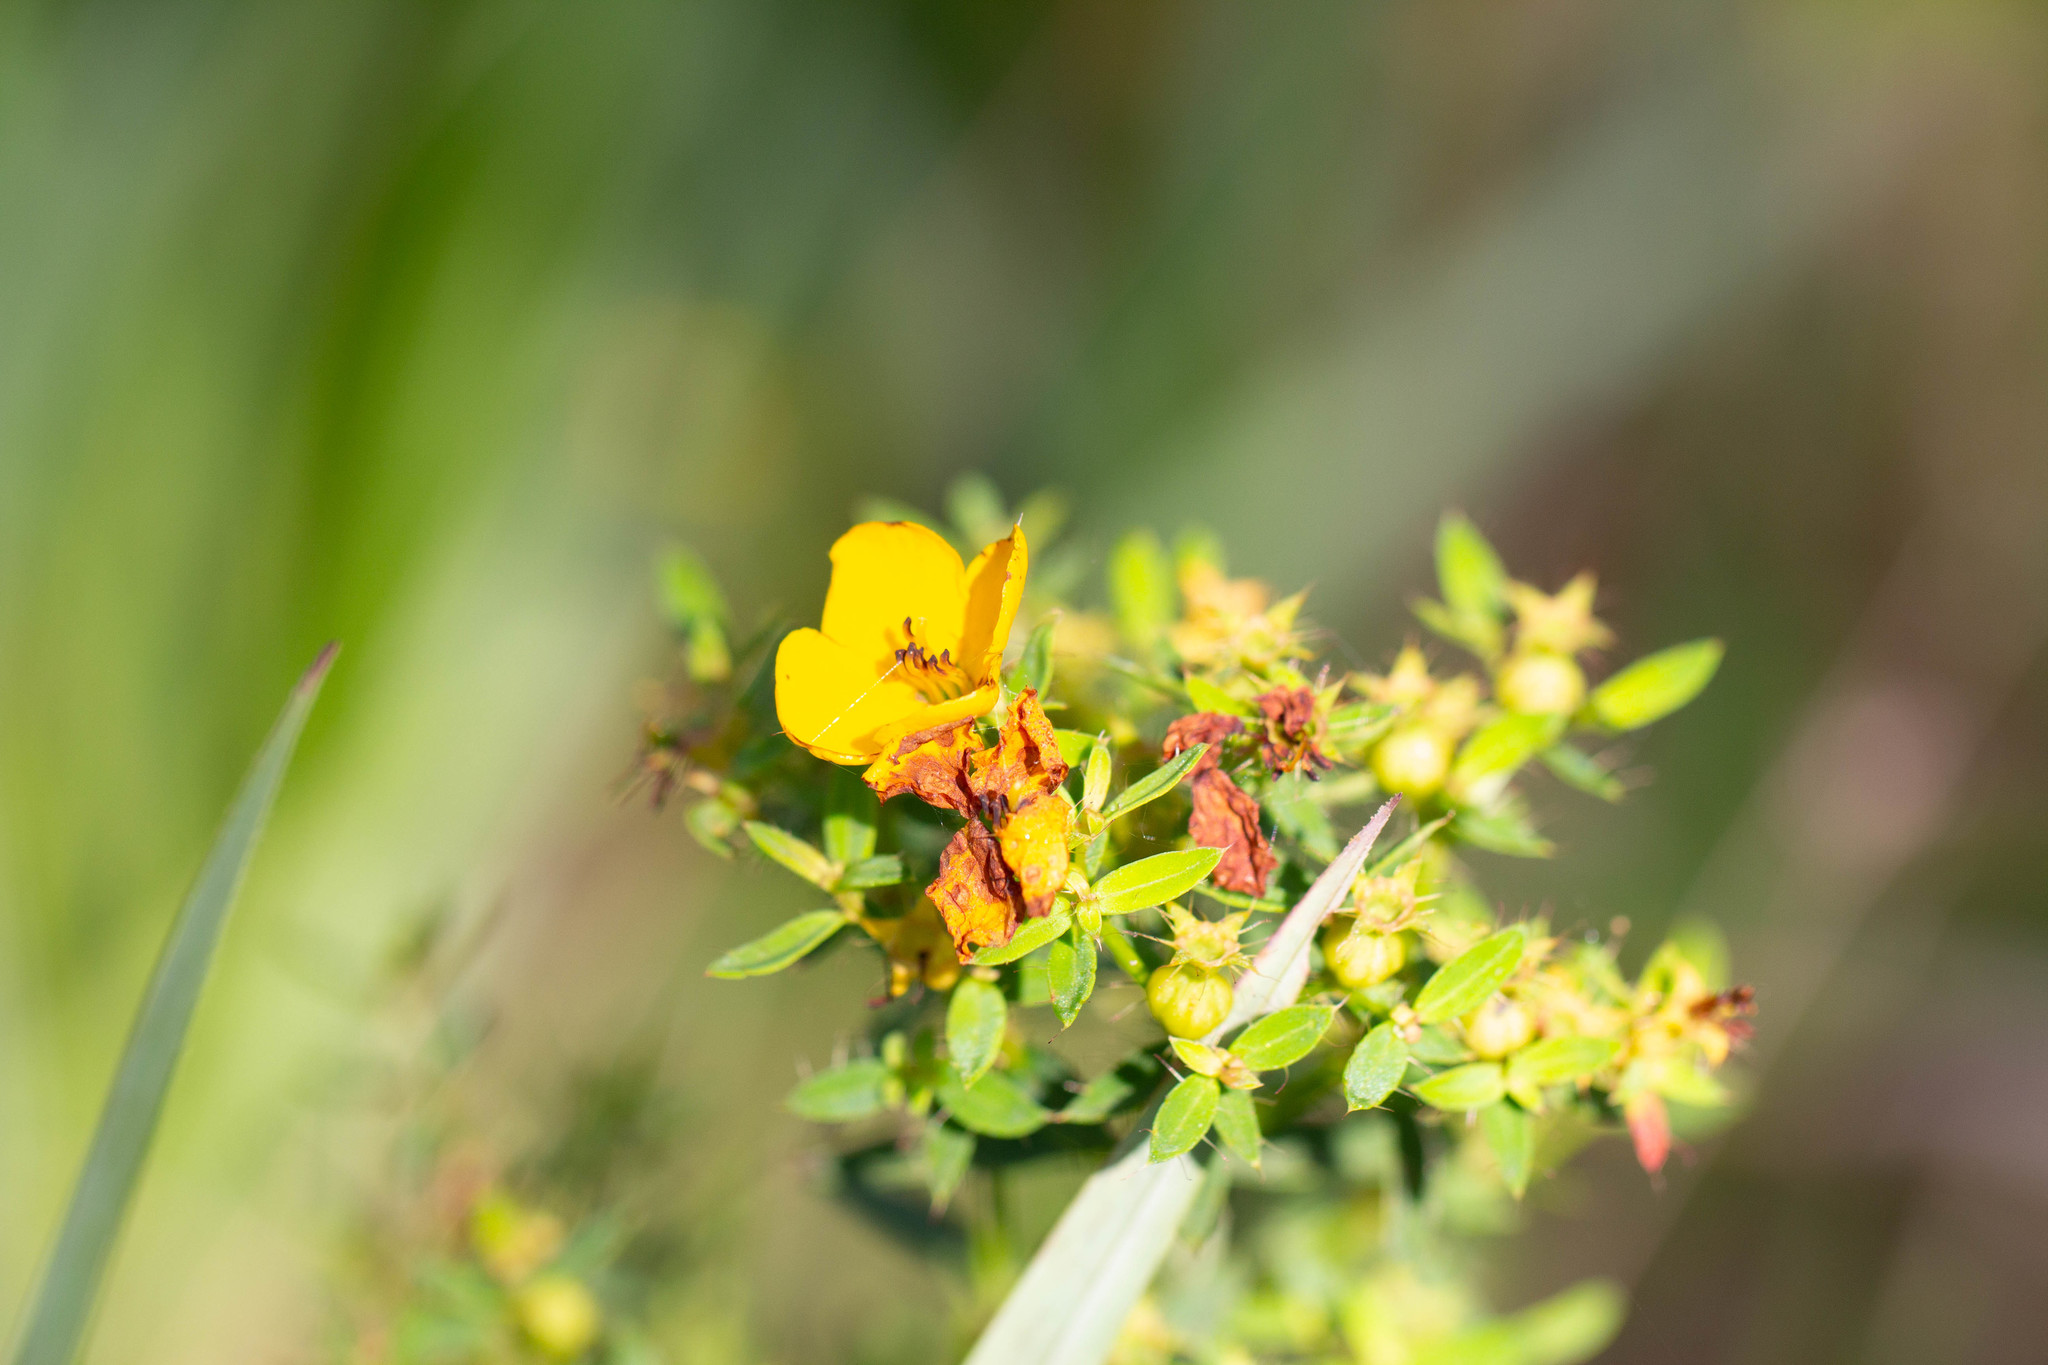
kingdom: Plantae
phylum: Tracheophyta
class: Magnoliopsida
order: Myrtales
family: Melastomataceae
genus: Rhexia
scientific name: Rhexia lutea
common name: Golden meadow-beauty
